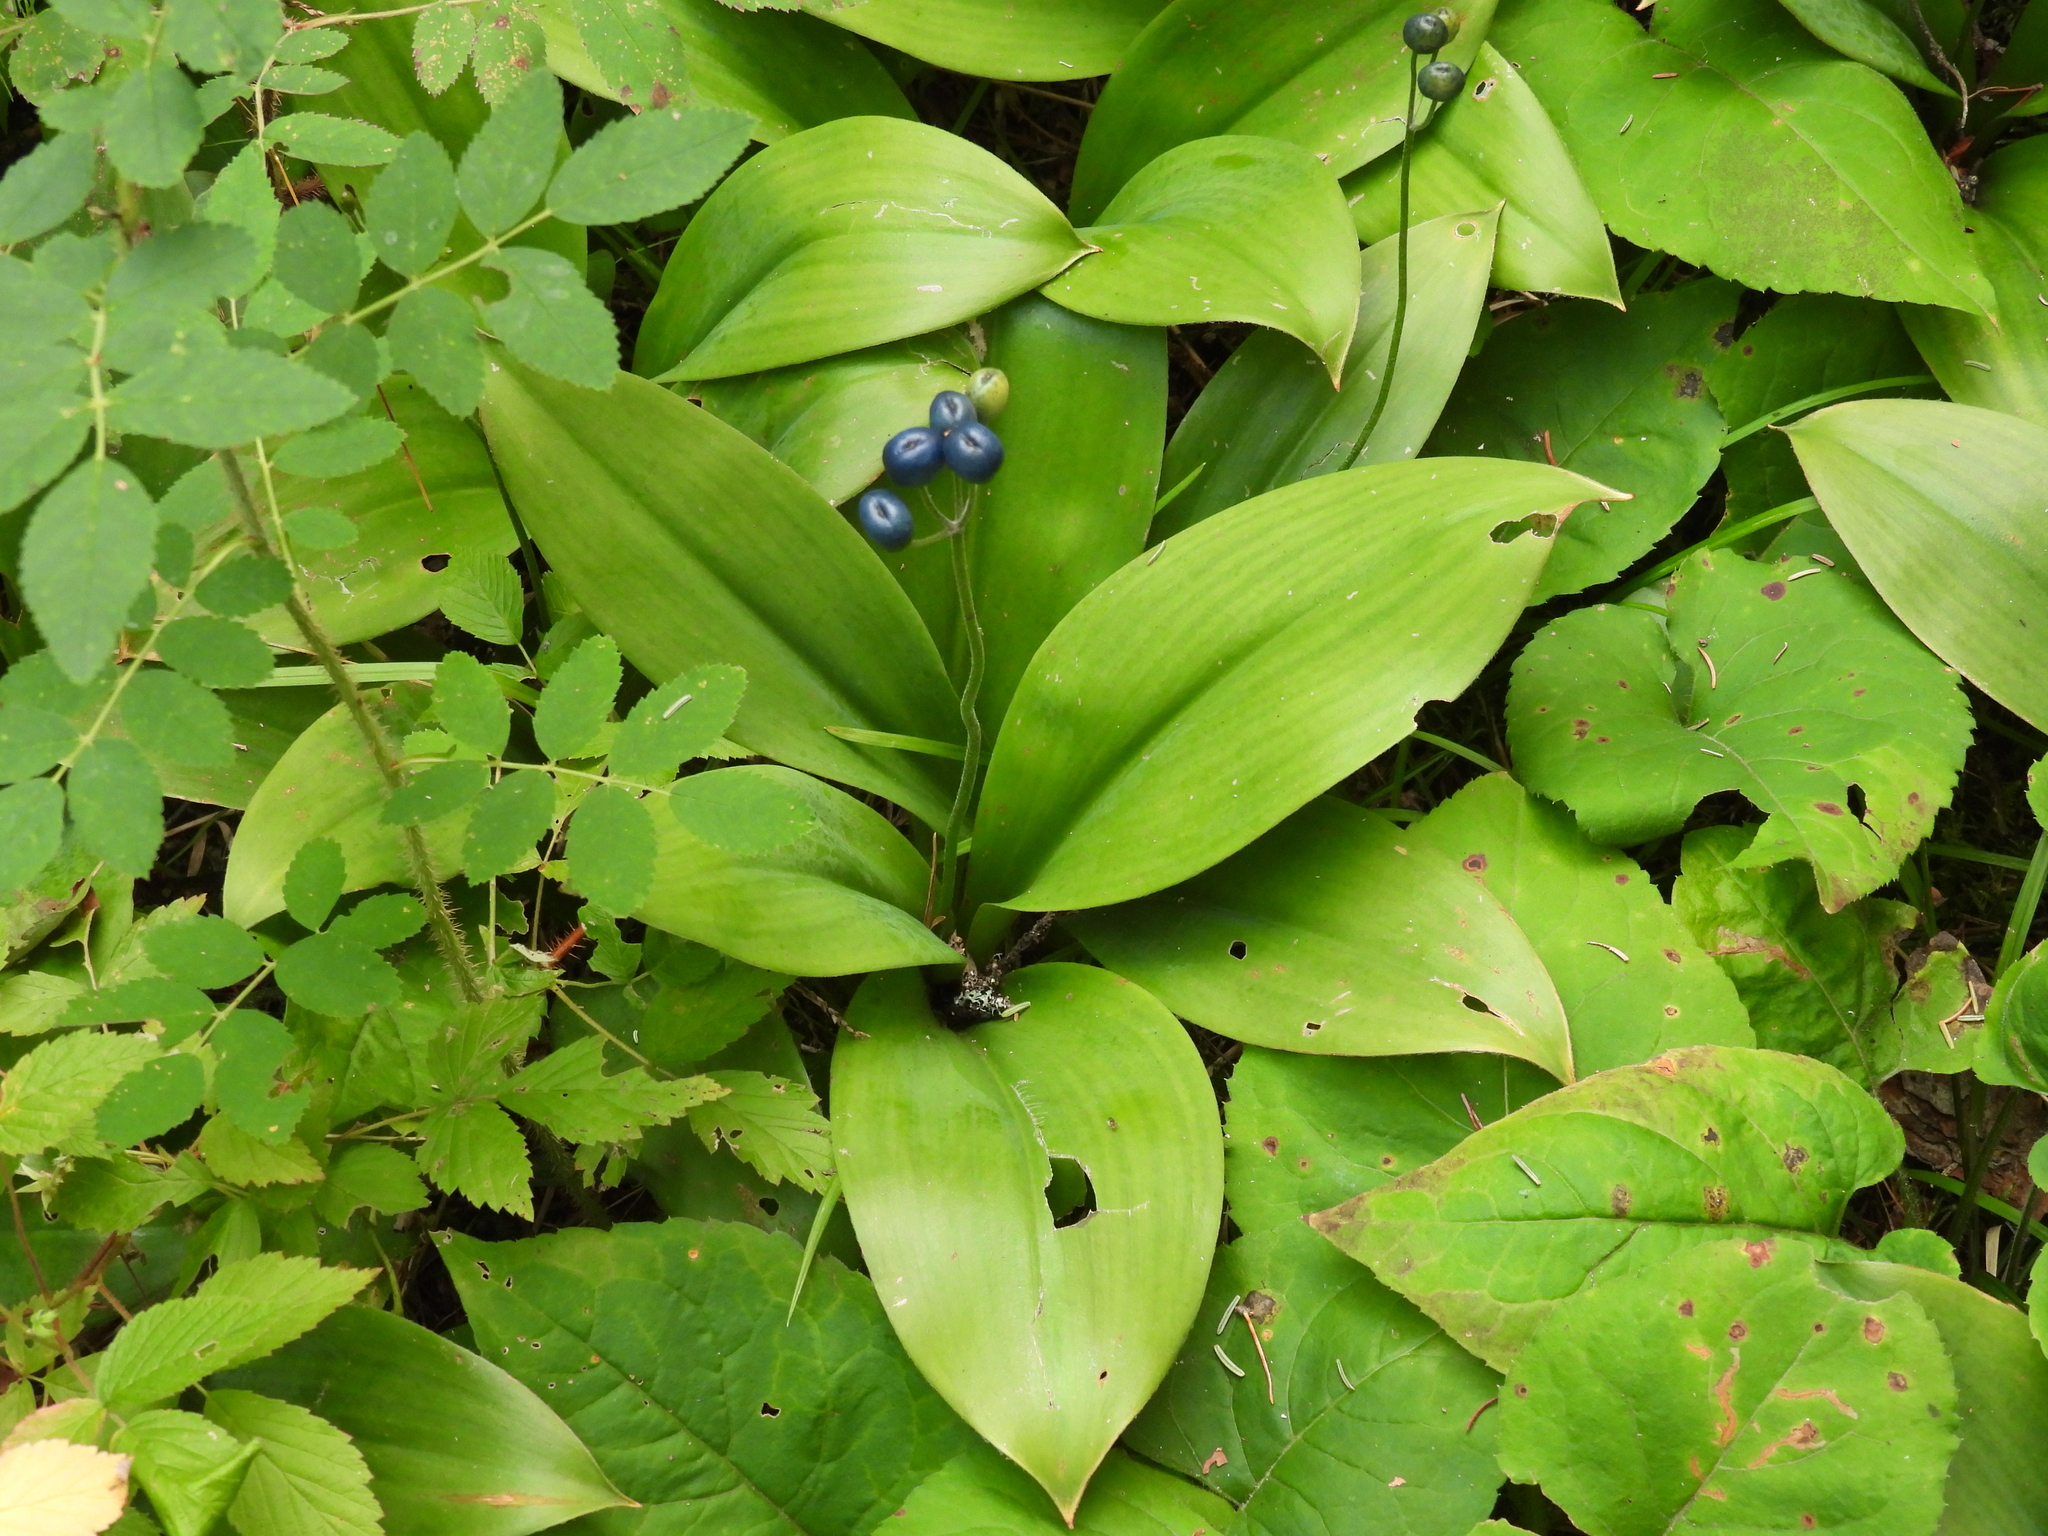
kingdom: Plantae
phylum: Tracheophyta
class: Liliopsida
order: Liliales
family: Liliaceae
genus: Clintonia
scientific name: Clintonia borealis
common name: Yellow clintonia
